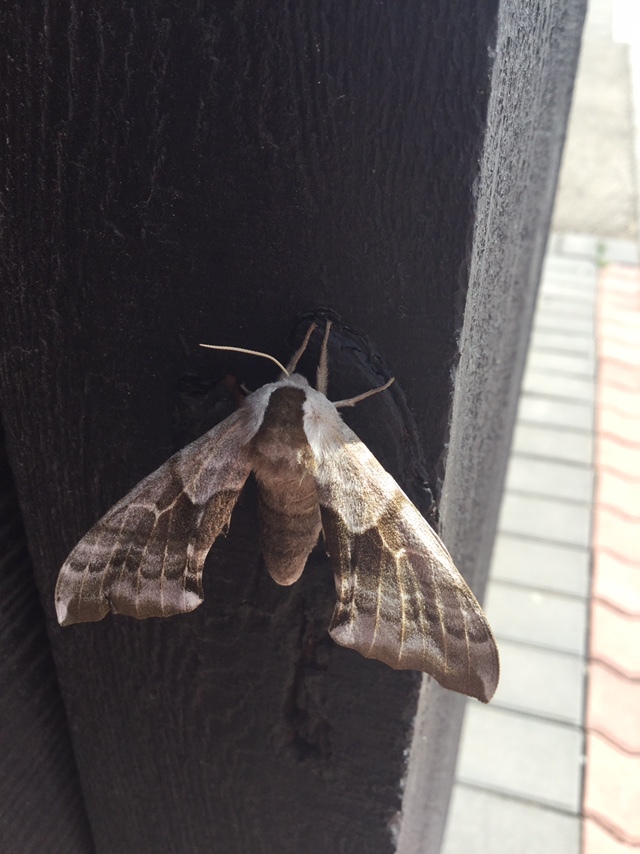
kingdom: Animalia
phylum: Arthropoda
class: Insecta
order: Lepidoptera
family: Sphingidae
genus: Smerinthus
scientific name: Smerinthus cerisyi
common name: Cerisy's sphinx moth
